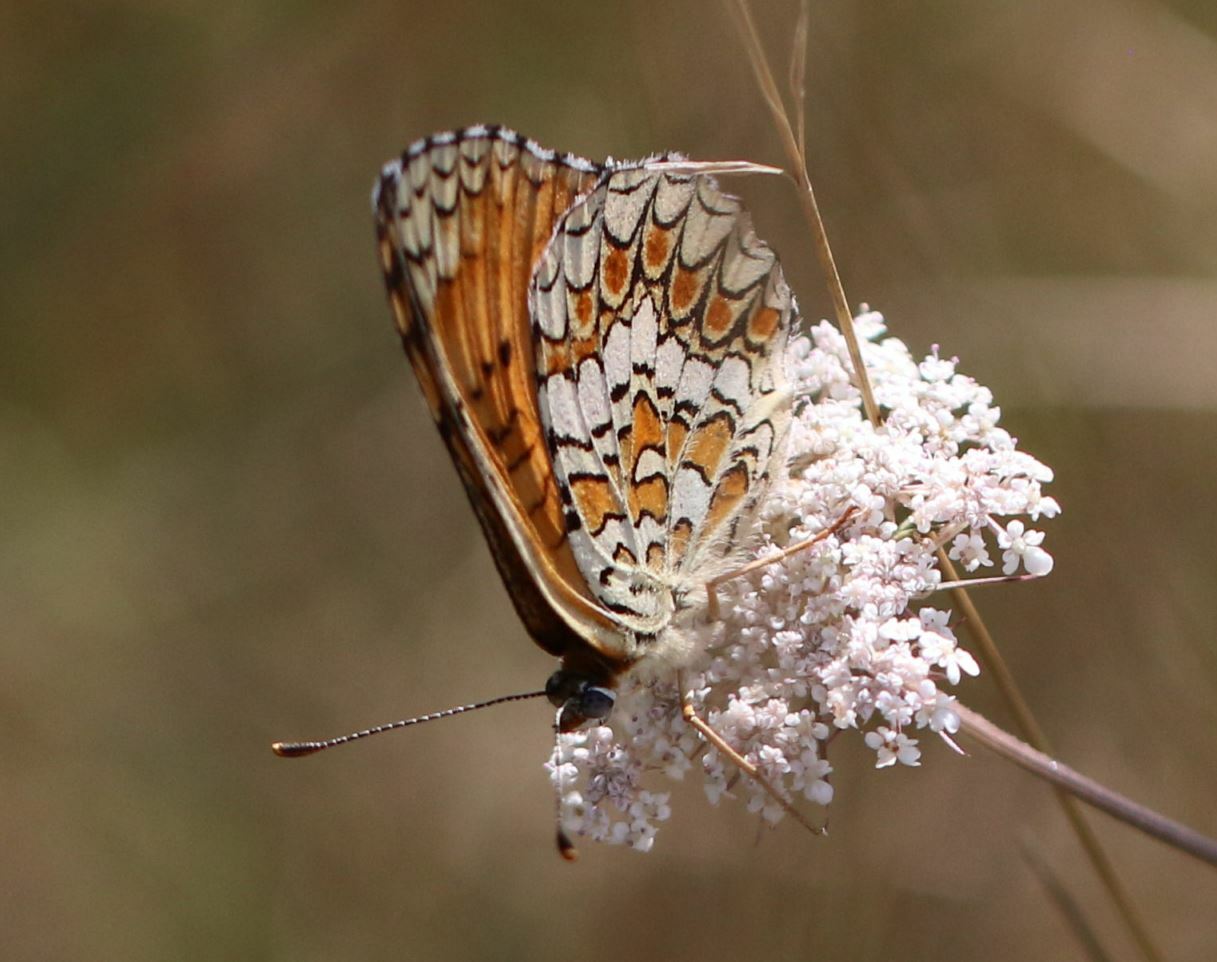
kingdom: Animalia
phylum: Arthropoda
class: Insecta
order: Lepidoptera
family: Nymphalidae
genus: Melitaea
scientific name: Melitaea phoebe
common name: Knapweed fritillary
